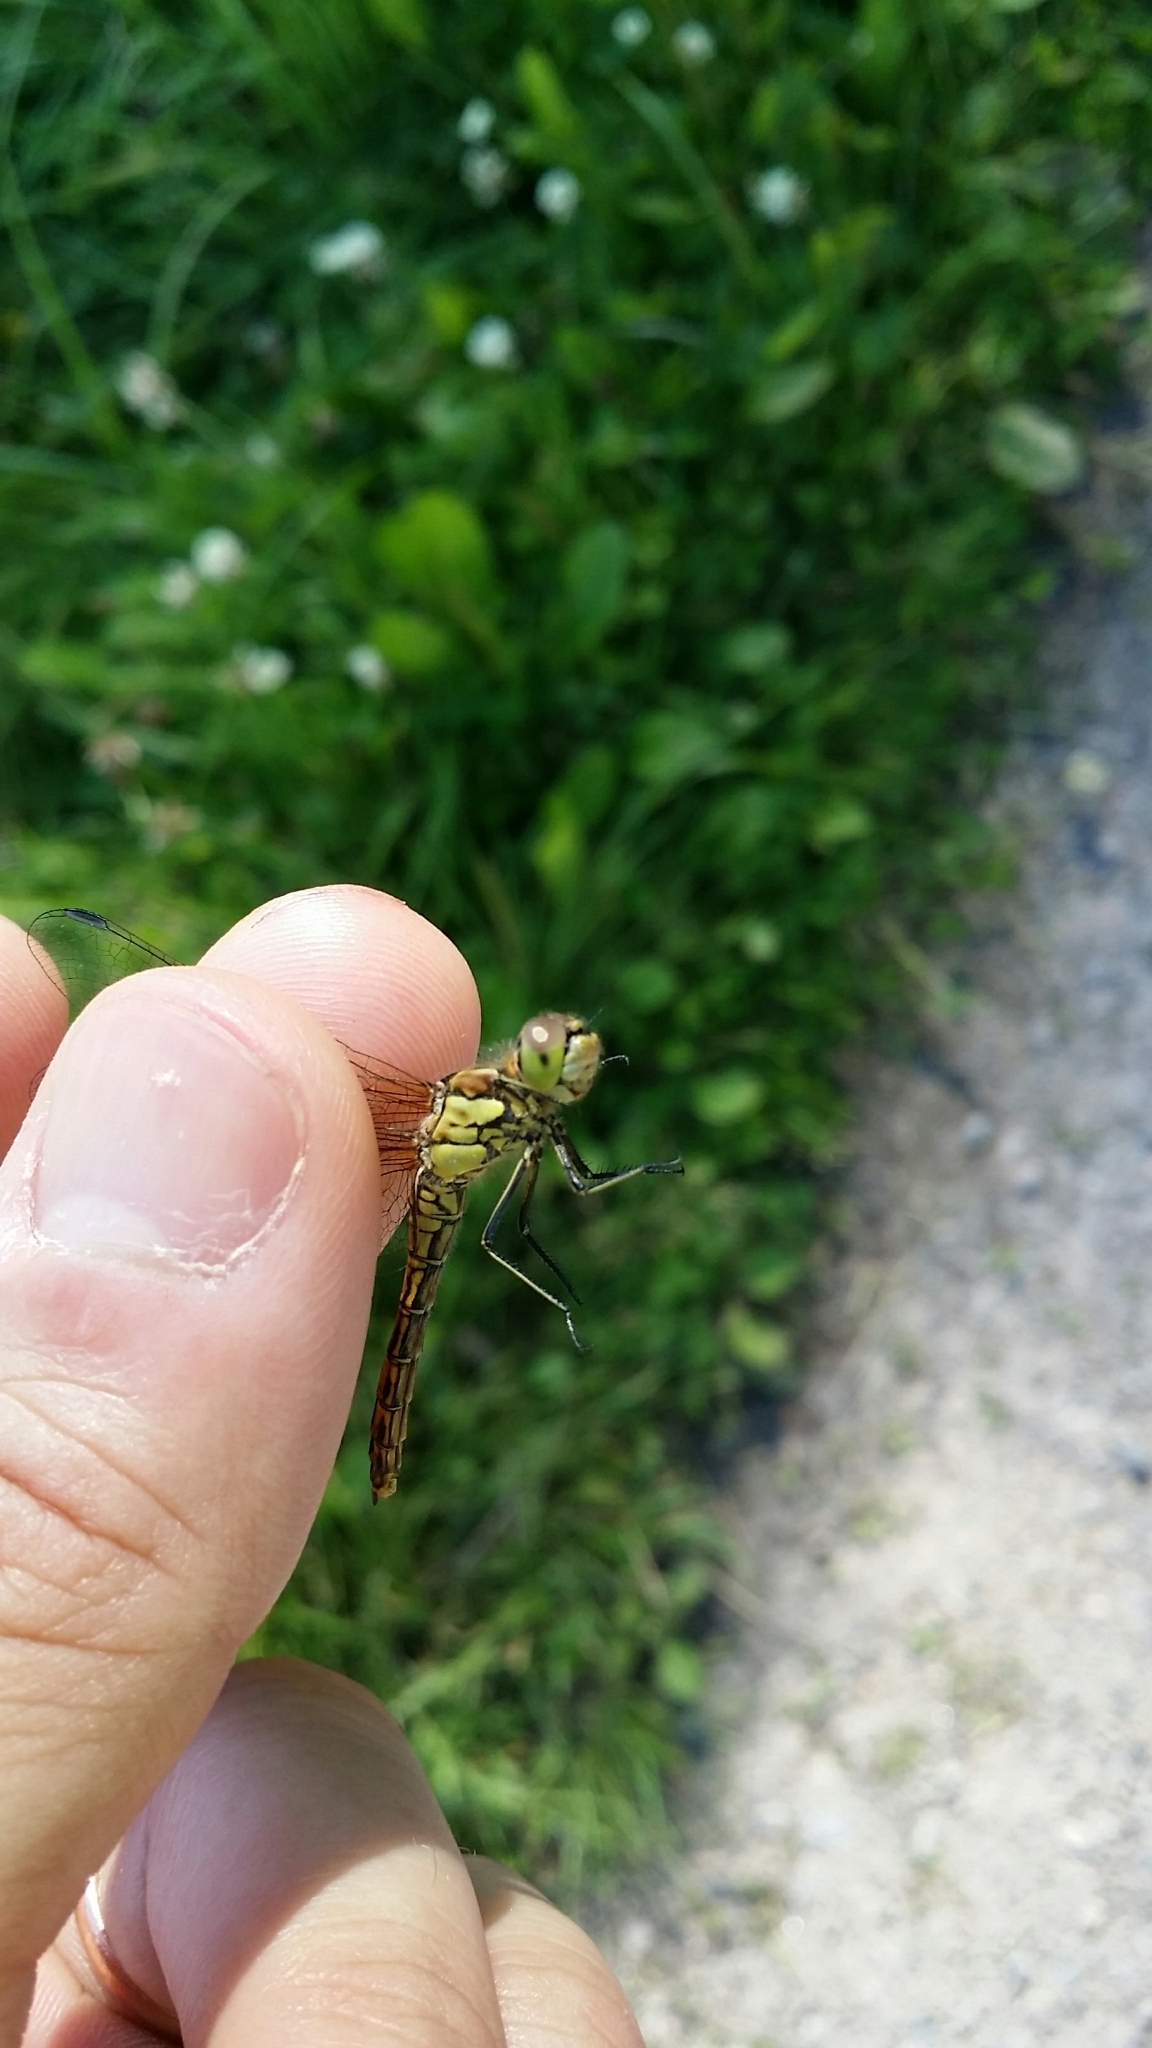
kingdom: Animalia
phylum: Arthropoda
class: Insecta
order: Odonata
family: Libellulidae
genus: Sympetrum
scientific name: Sympetrum vulgatum
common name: Vagrant darter
